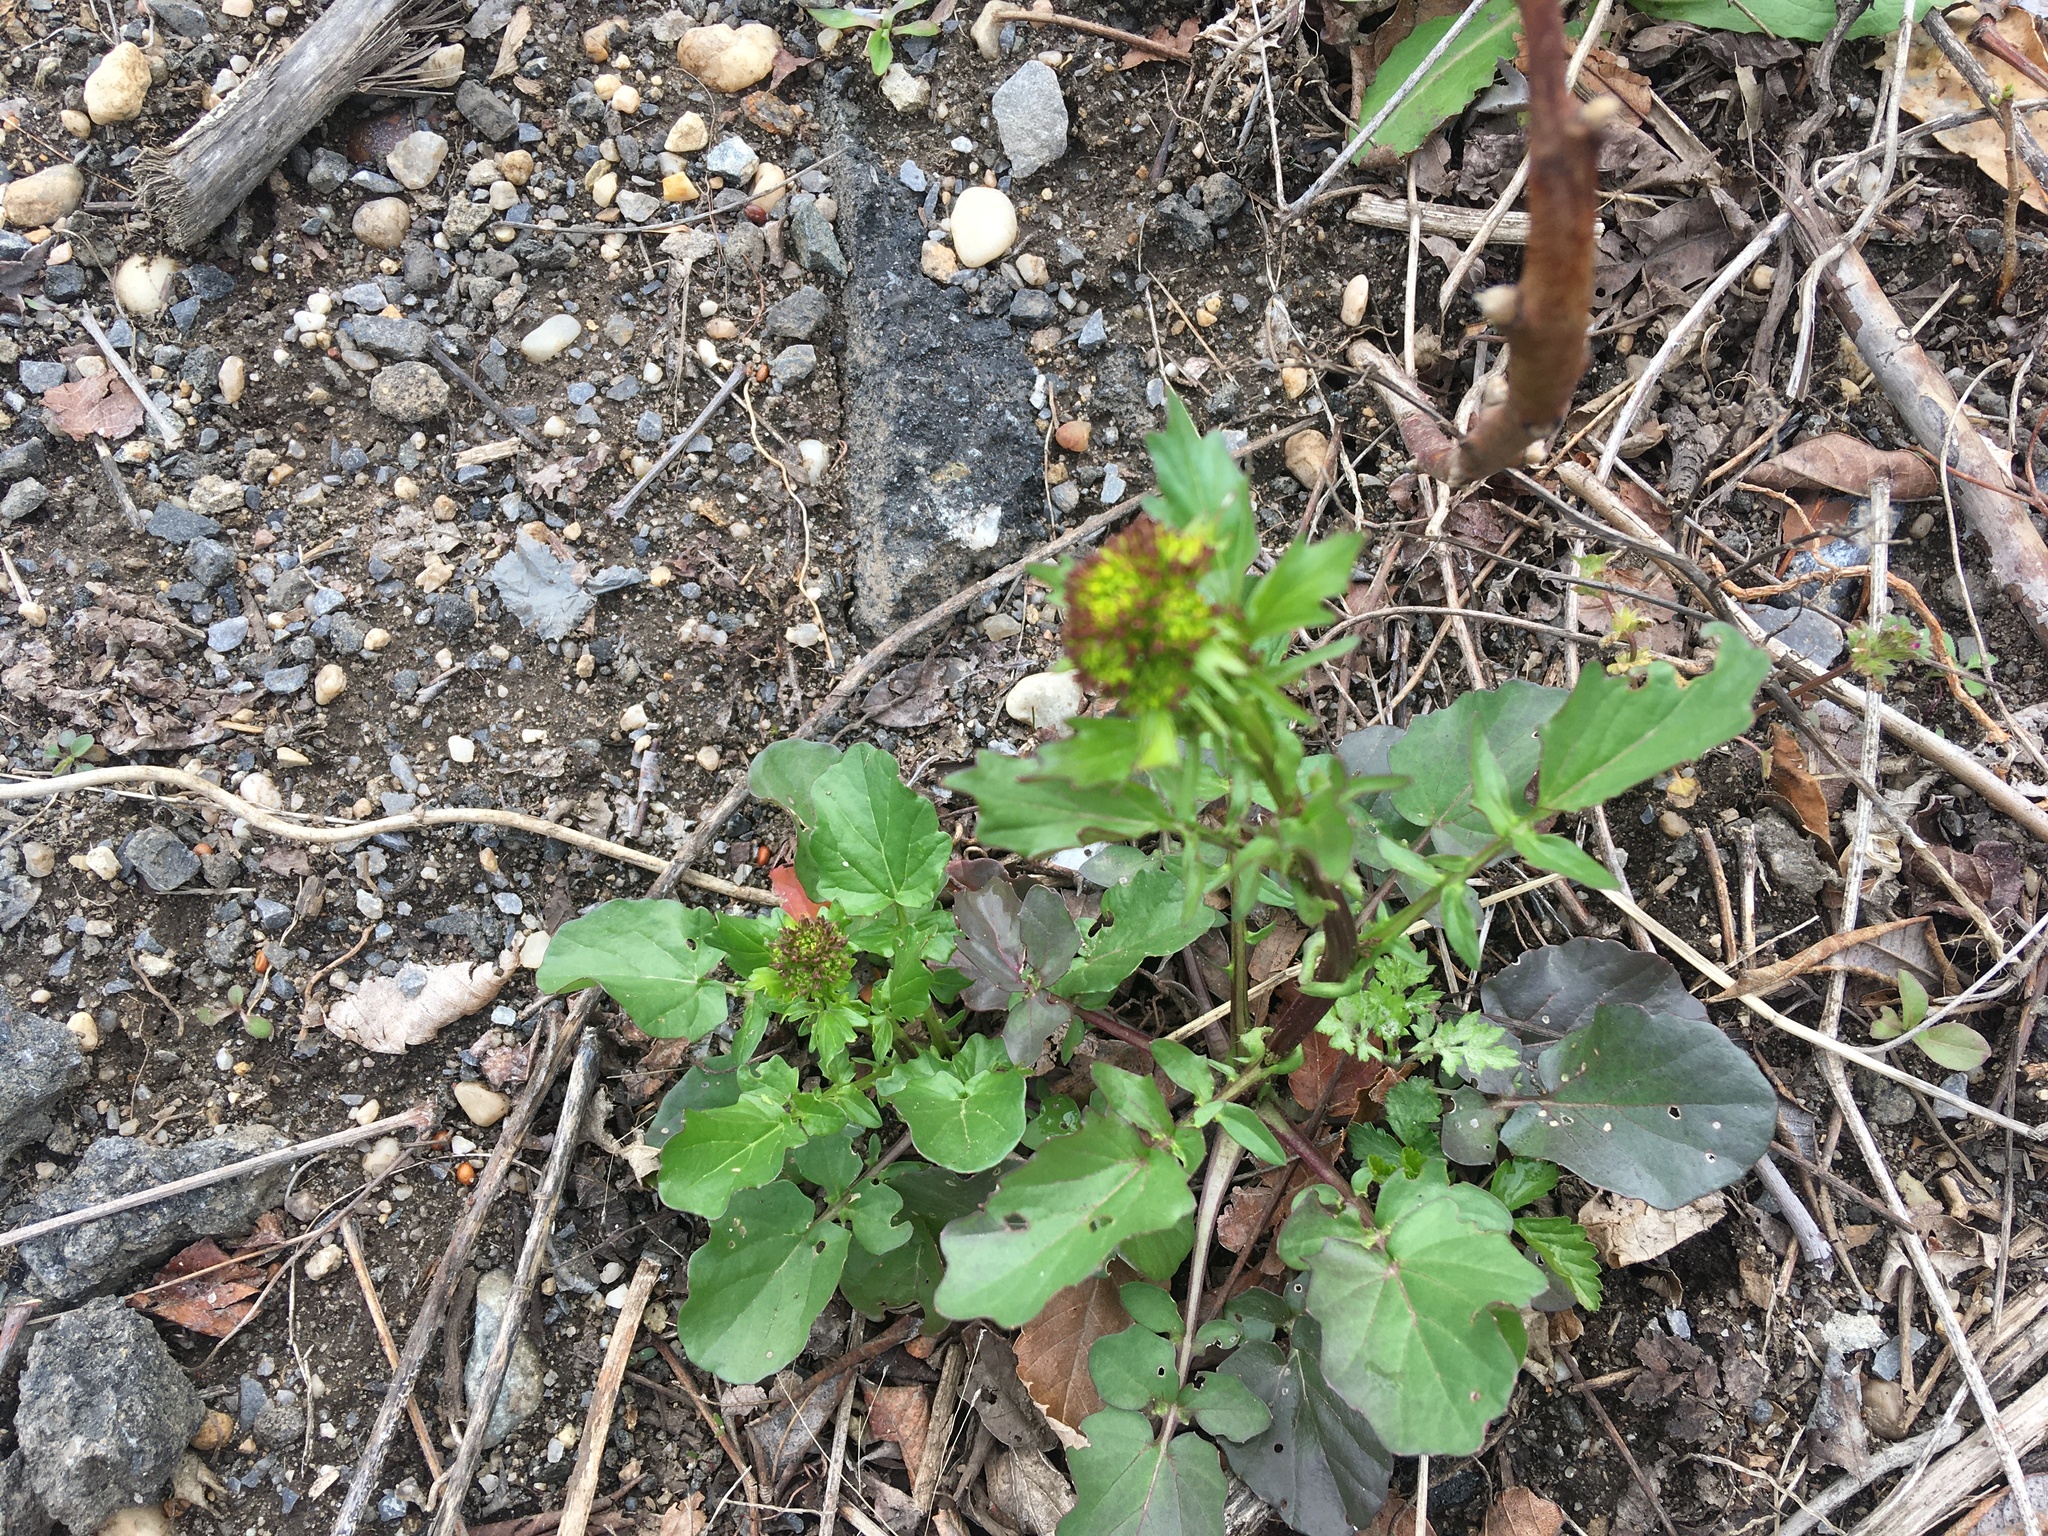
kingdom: Plantae
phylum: Tracheophyta
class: Magnoliopsida
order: Brassicales
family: Brassicaceae
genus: Barbarea
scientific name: Barbarea vulgaris
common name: Cressy-greens
